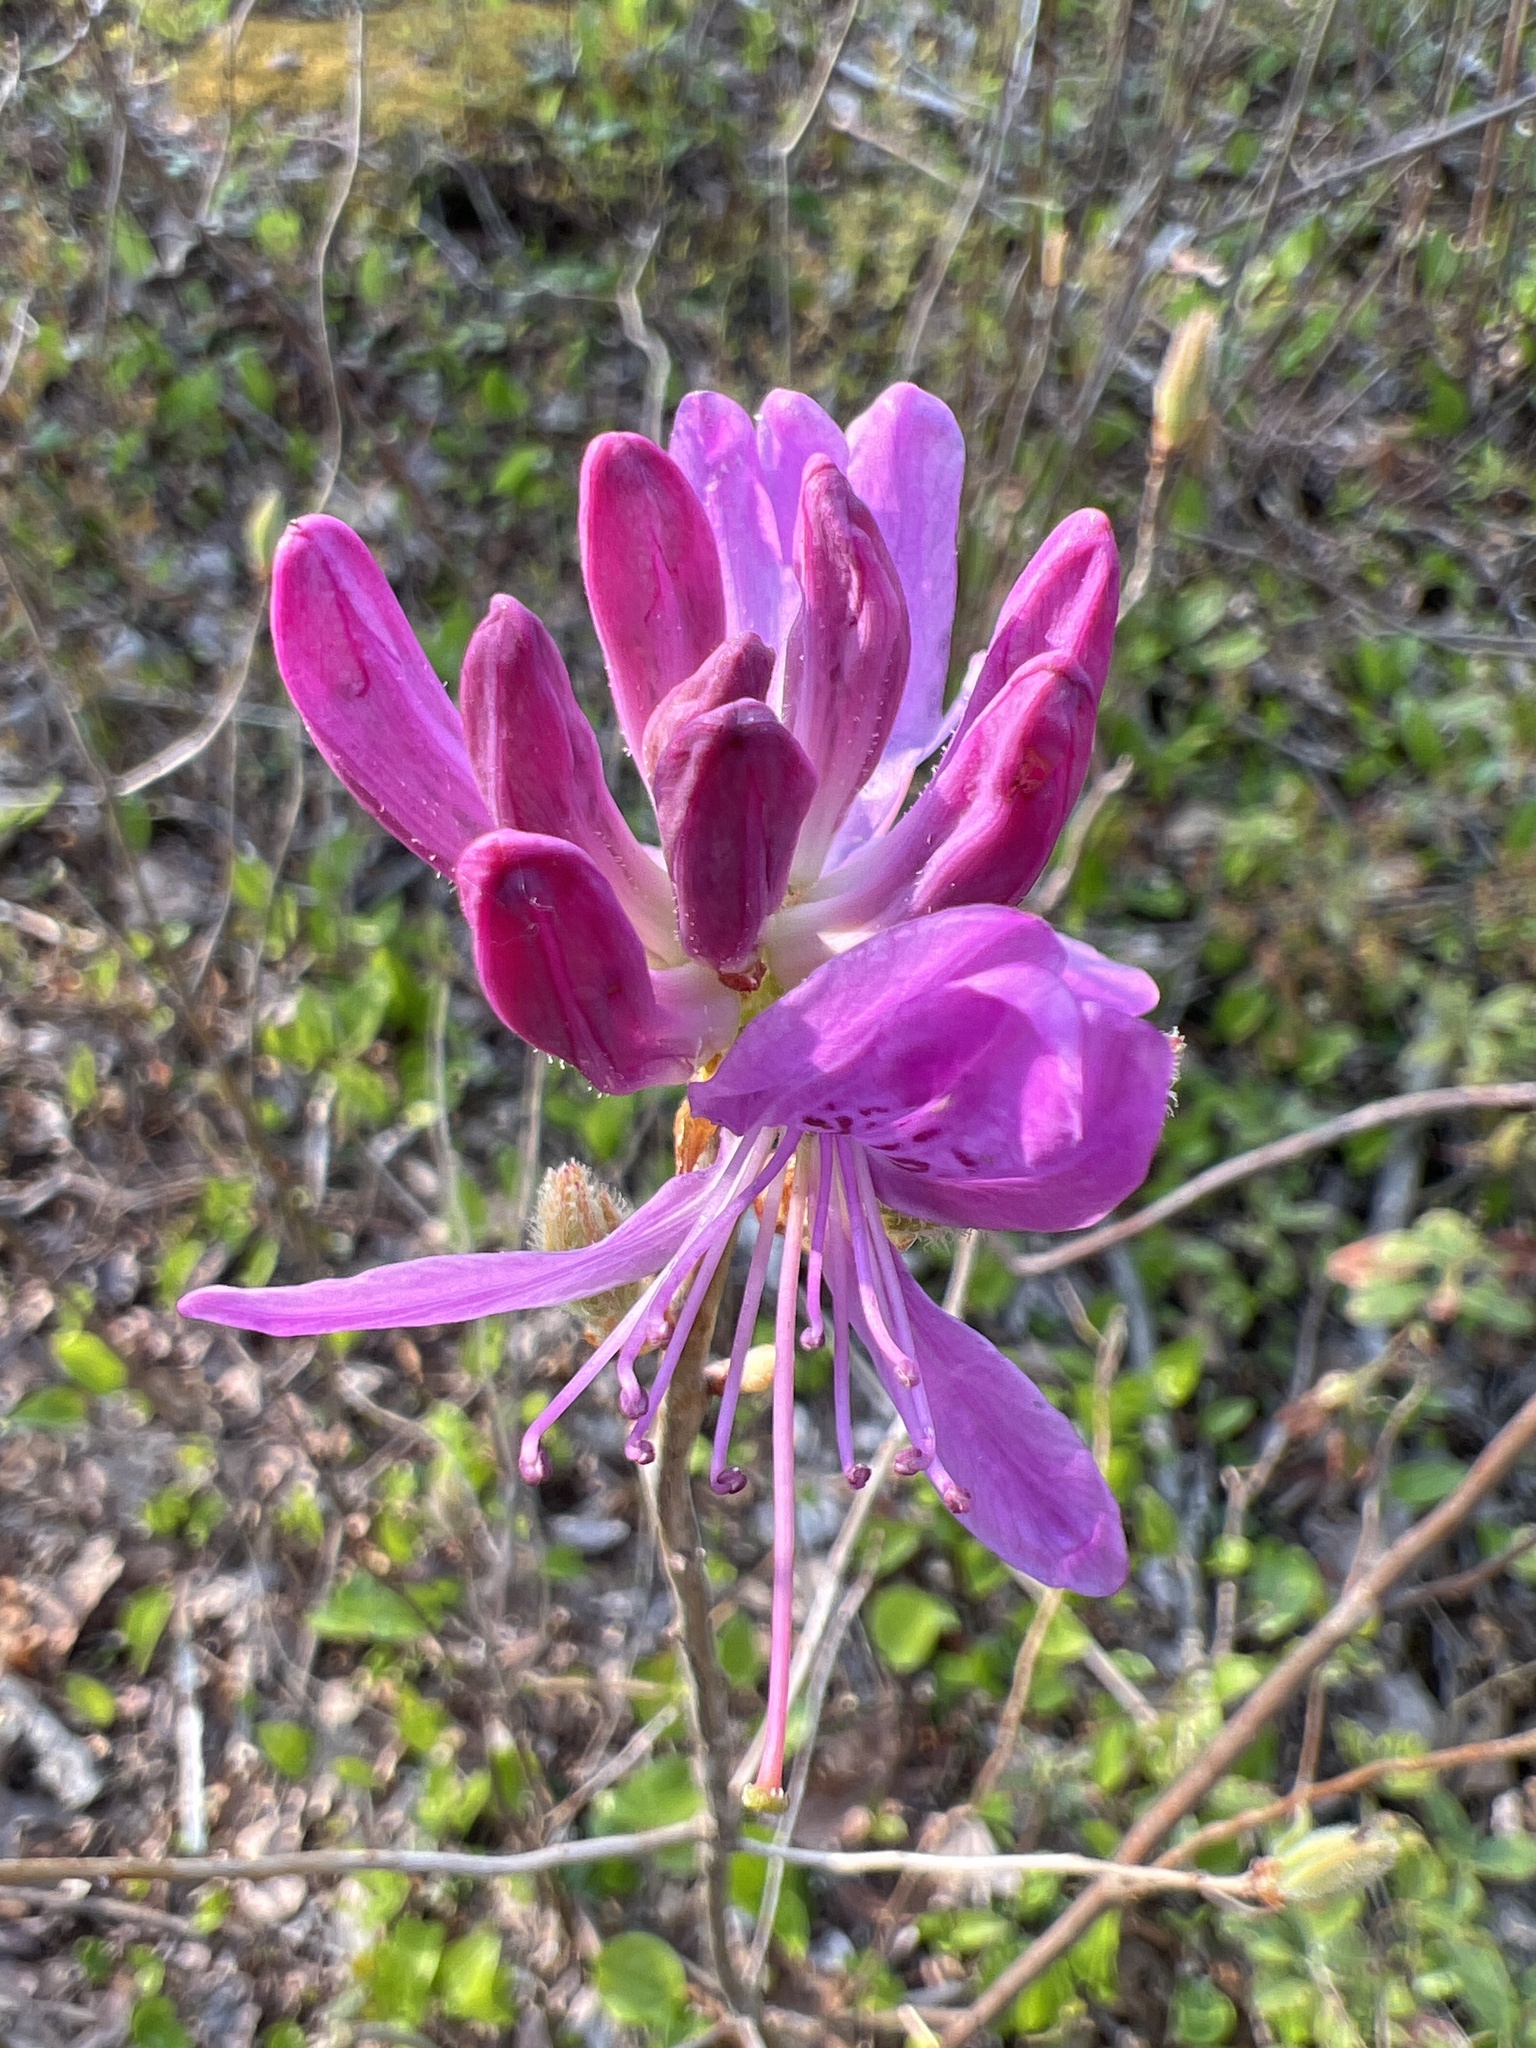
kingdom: Plantae
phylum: Tracheophyta
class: Magnoliopsida
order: Ericales
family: Ericaceae
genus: Rhododendron
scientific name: Rhododendron canadense
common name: Rhodora
